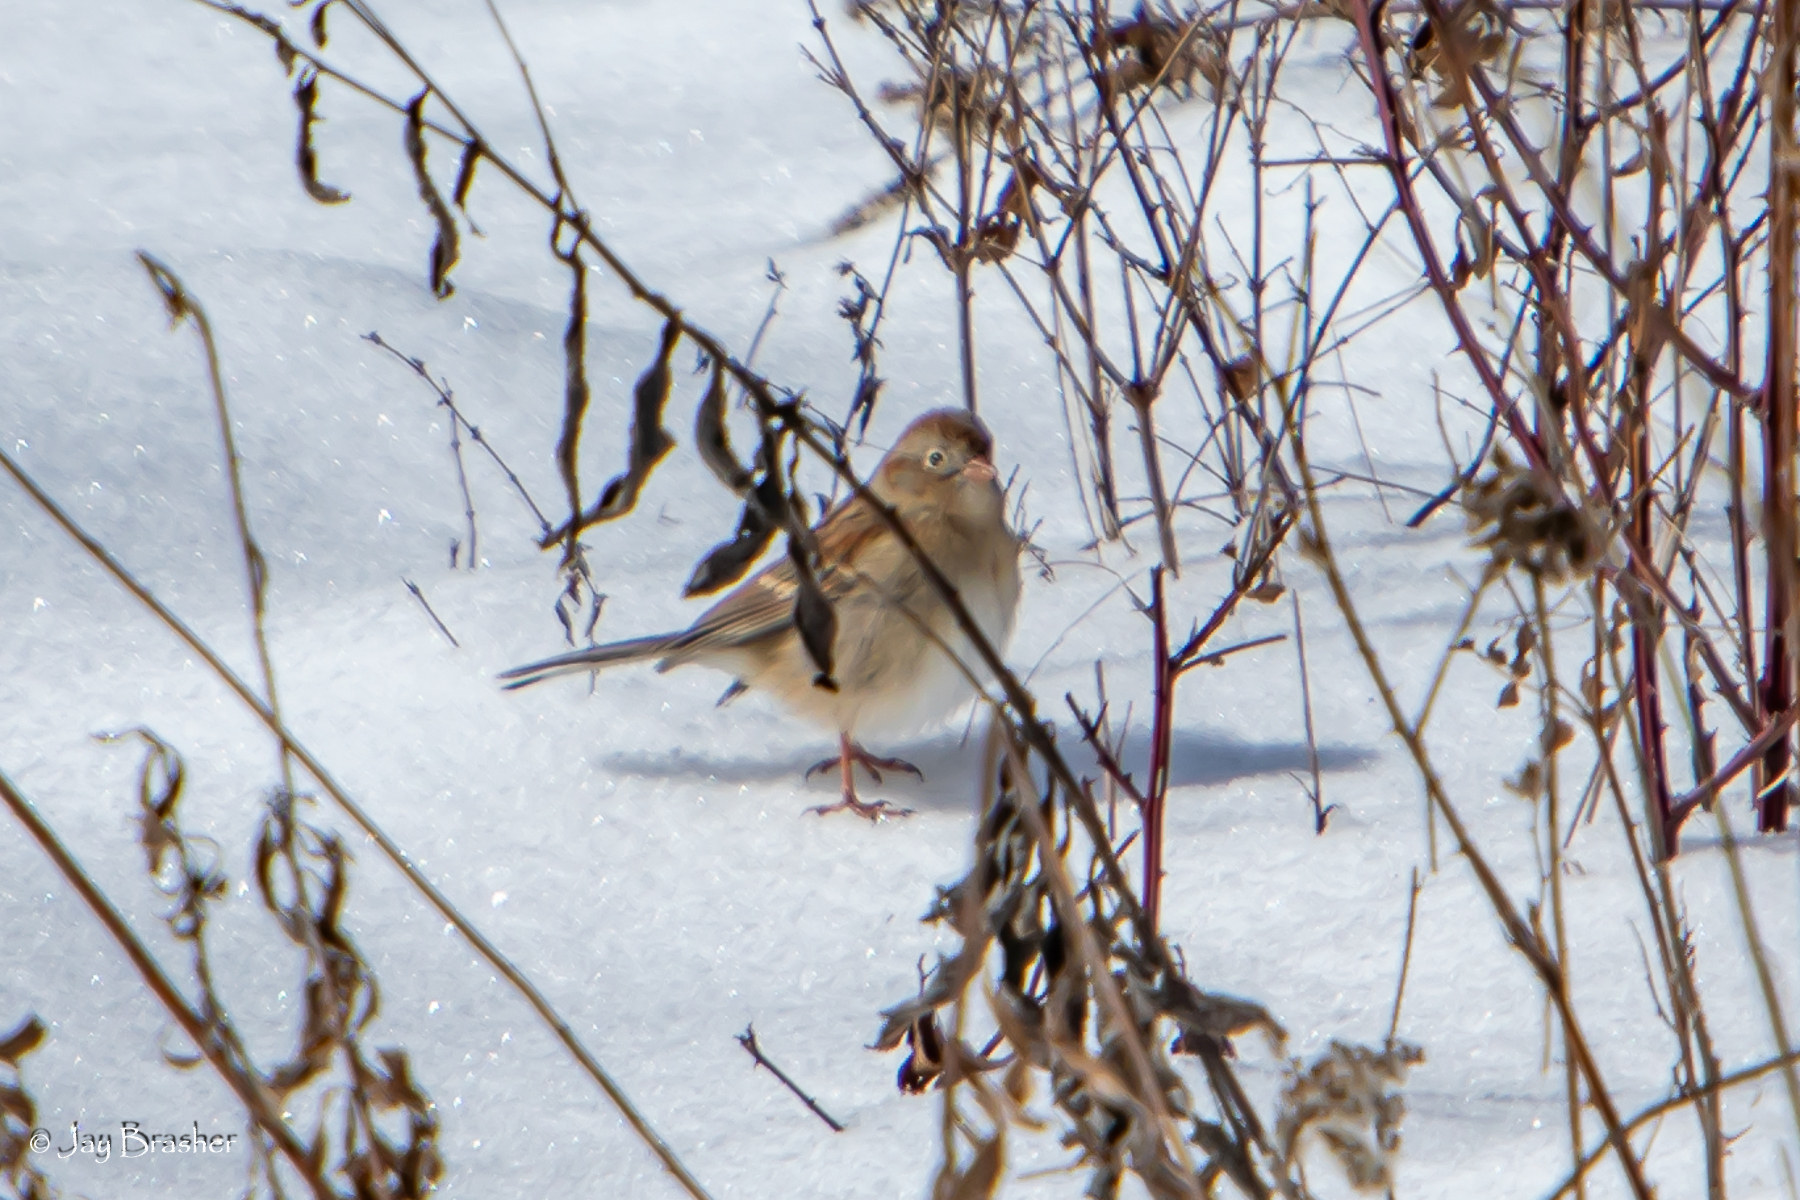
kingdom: Animalia
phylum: Chordata
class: Aves
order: Passeriformes
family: Passerellidae
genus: Spizella
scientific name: Spizella pusilla
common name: Field sparrow
